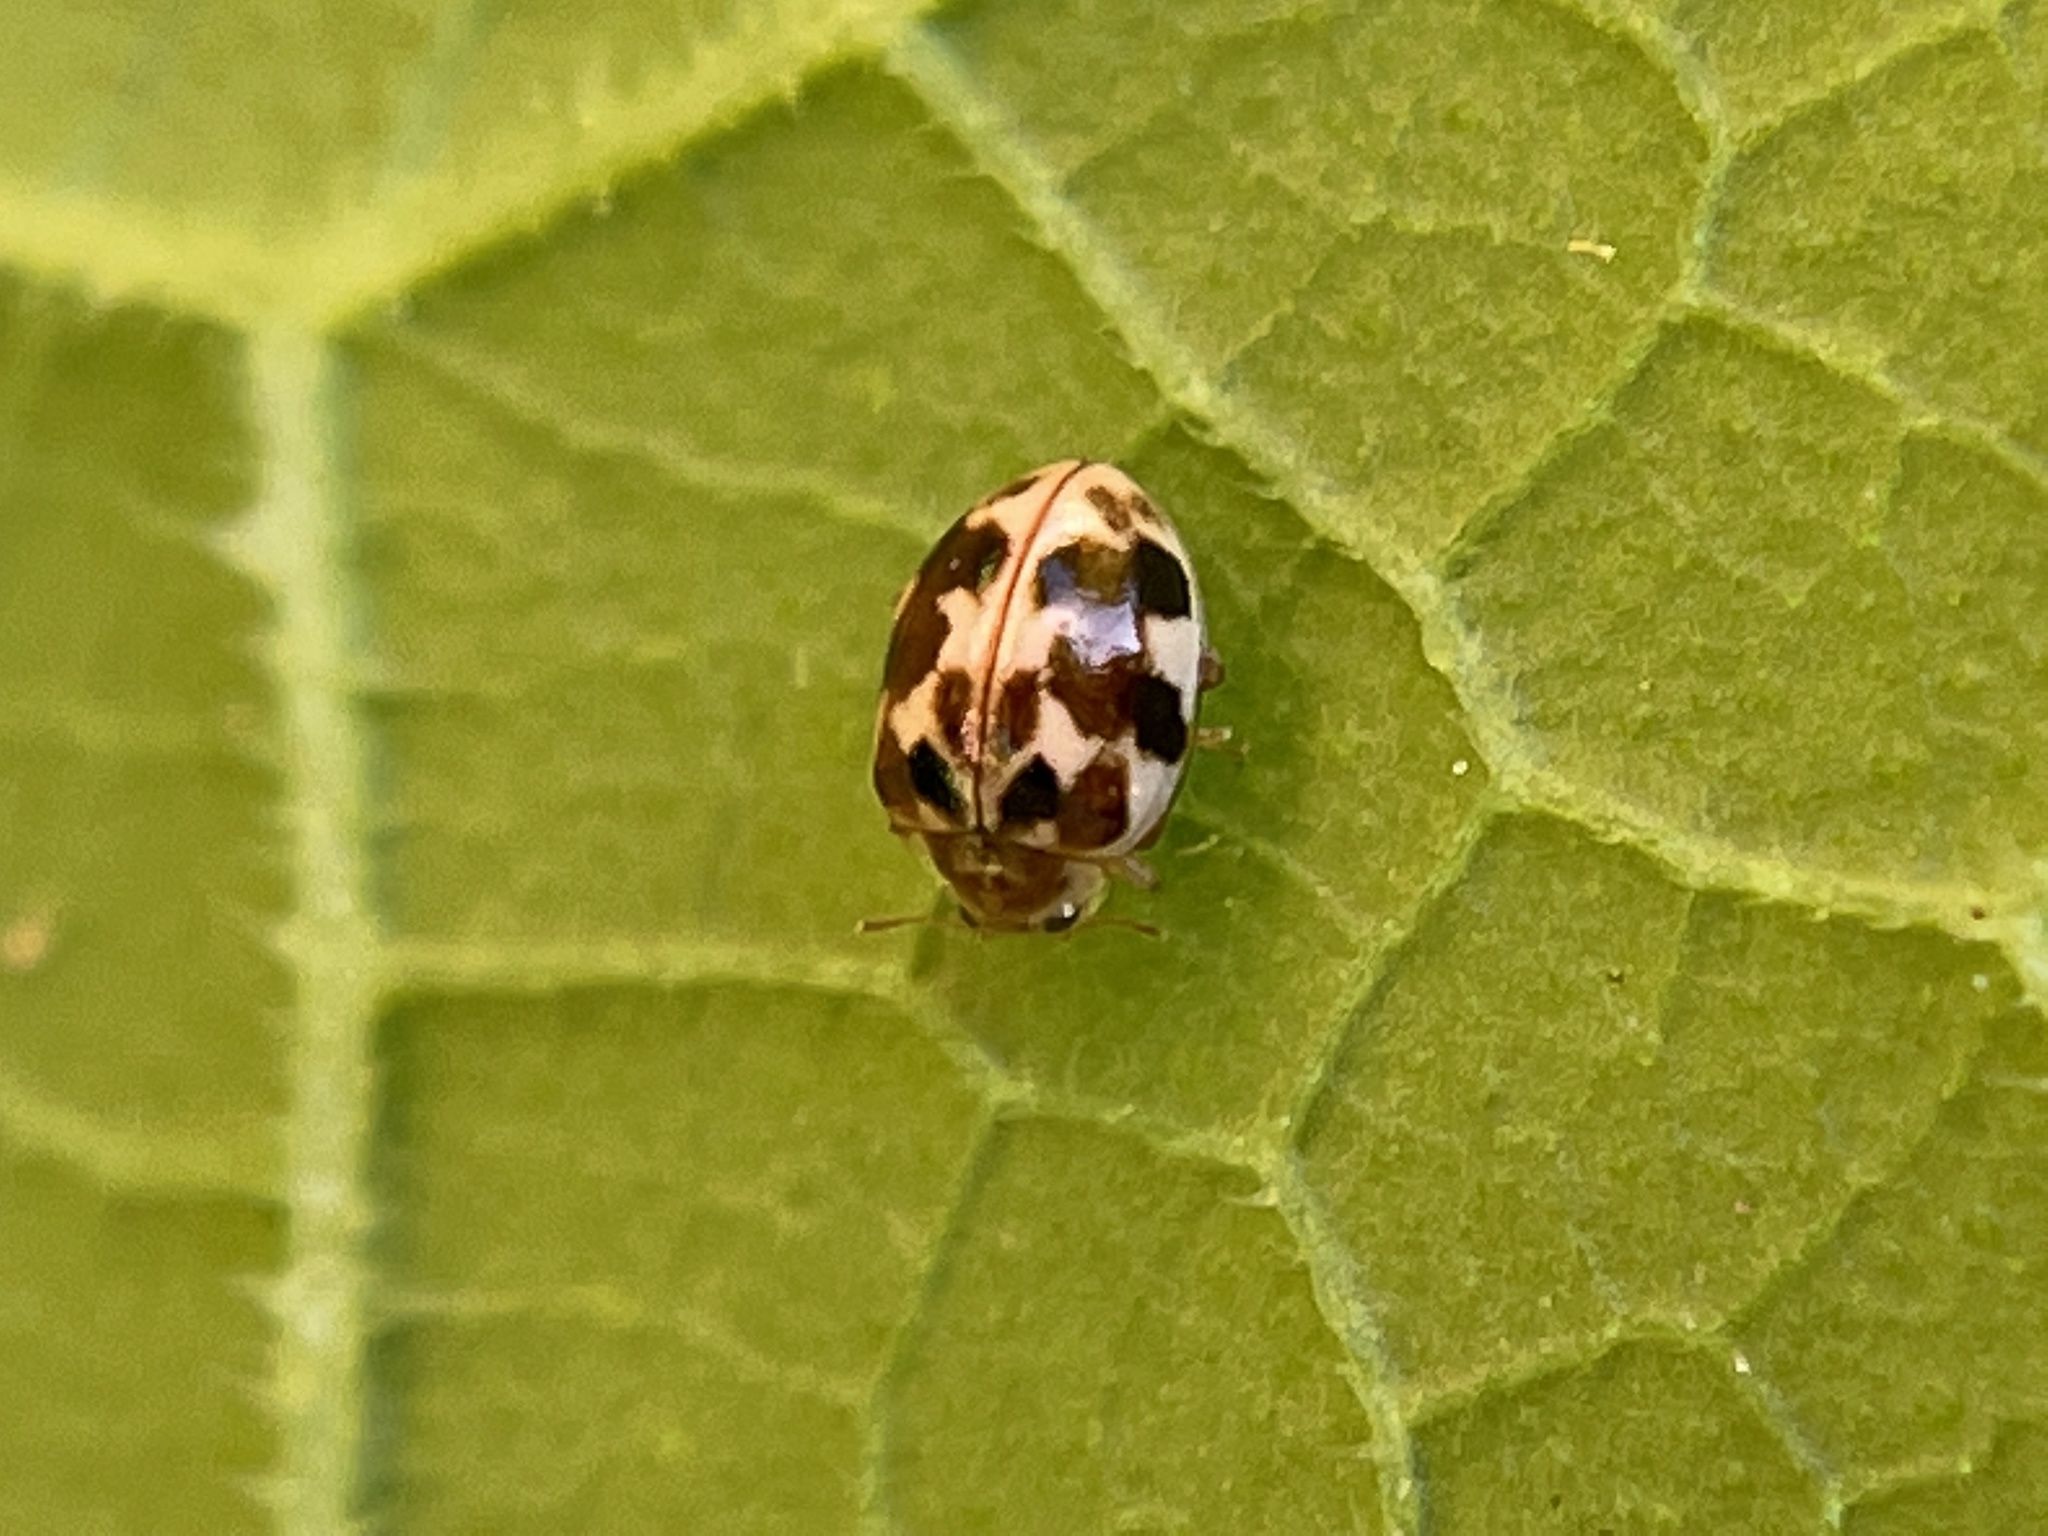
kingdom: Animalia
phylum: Arthropoda
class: Insecta
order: Coleoptera
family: Coccinellidae
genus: Psyllobora
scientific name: Psyllobora vigintimaculata
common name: Ladybird beetle
